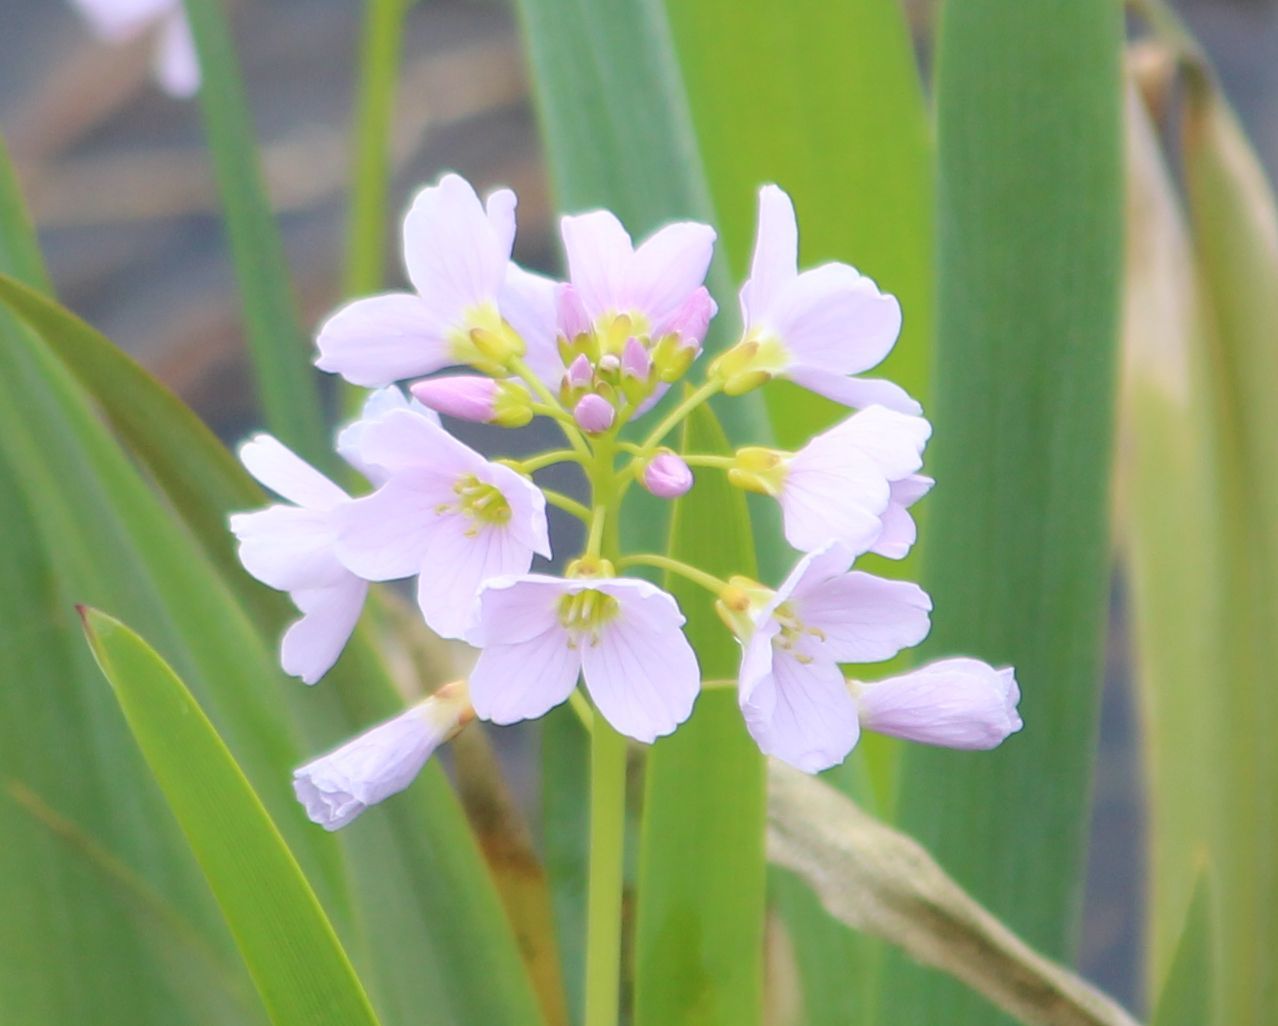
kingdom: Plantae
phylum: Tracheophyta
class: Magnoliopsida
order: Brassicales
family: Brassicaceae
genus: Cardamine
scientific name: Cardamine pratensis
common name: Cuckoo flower
